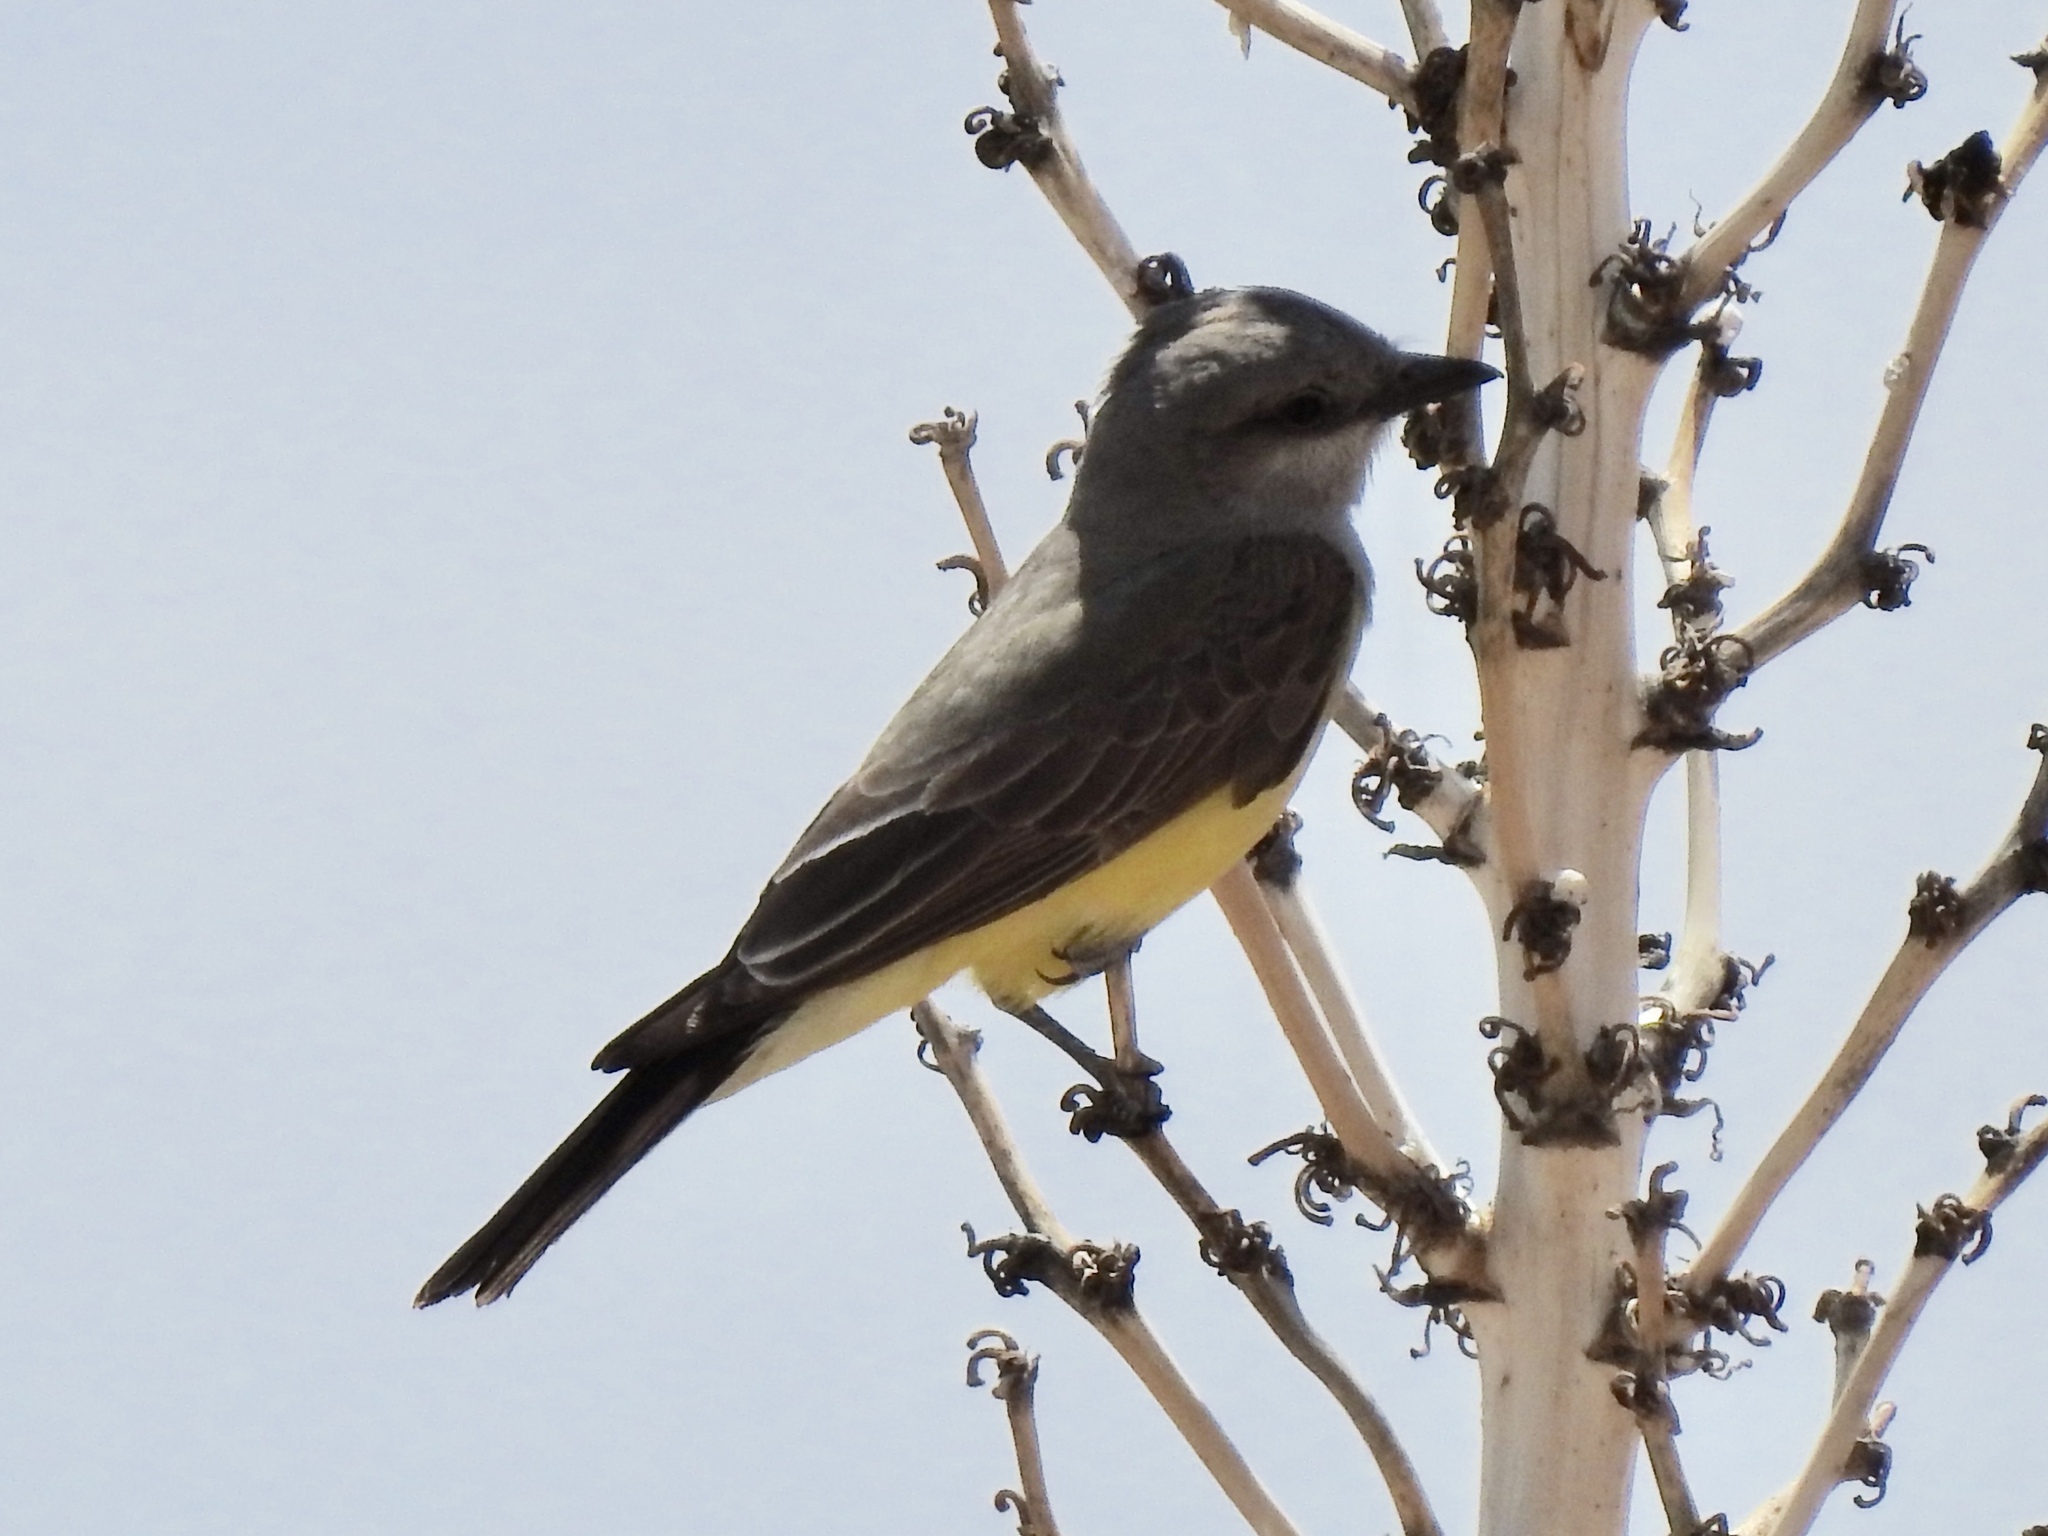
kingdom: Animalia
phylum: Chordata
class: Aves
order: Passeriformes
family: Tyrannidae
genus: Tyrannus
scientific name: Tyrannus verticalis
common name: Western kingbird
